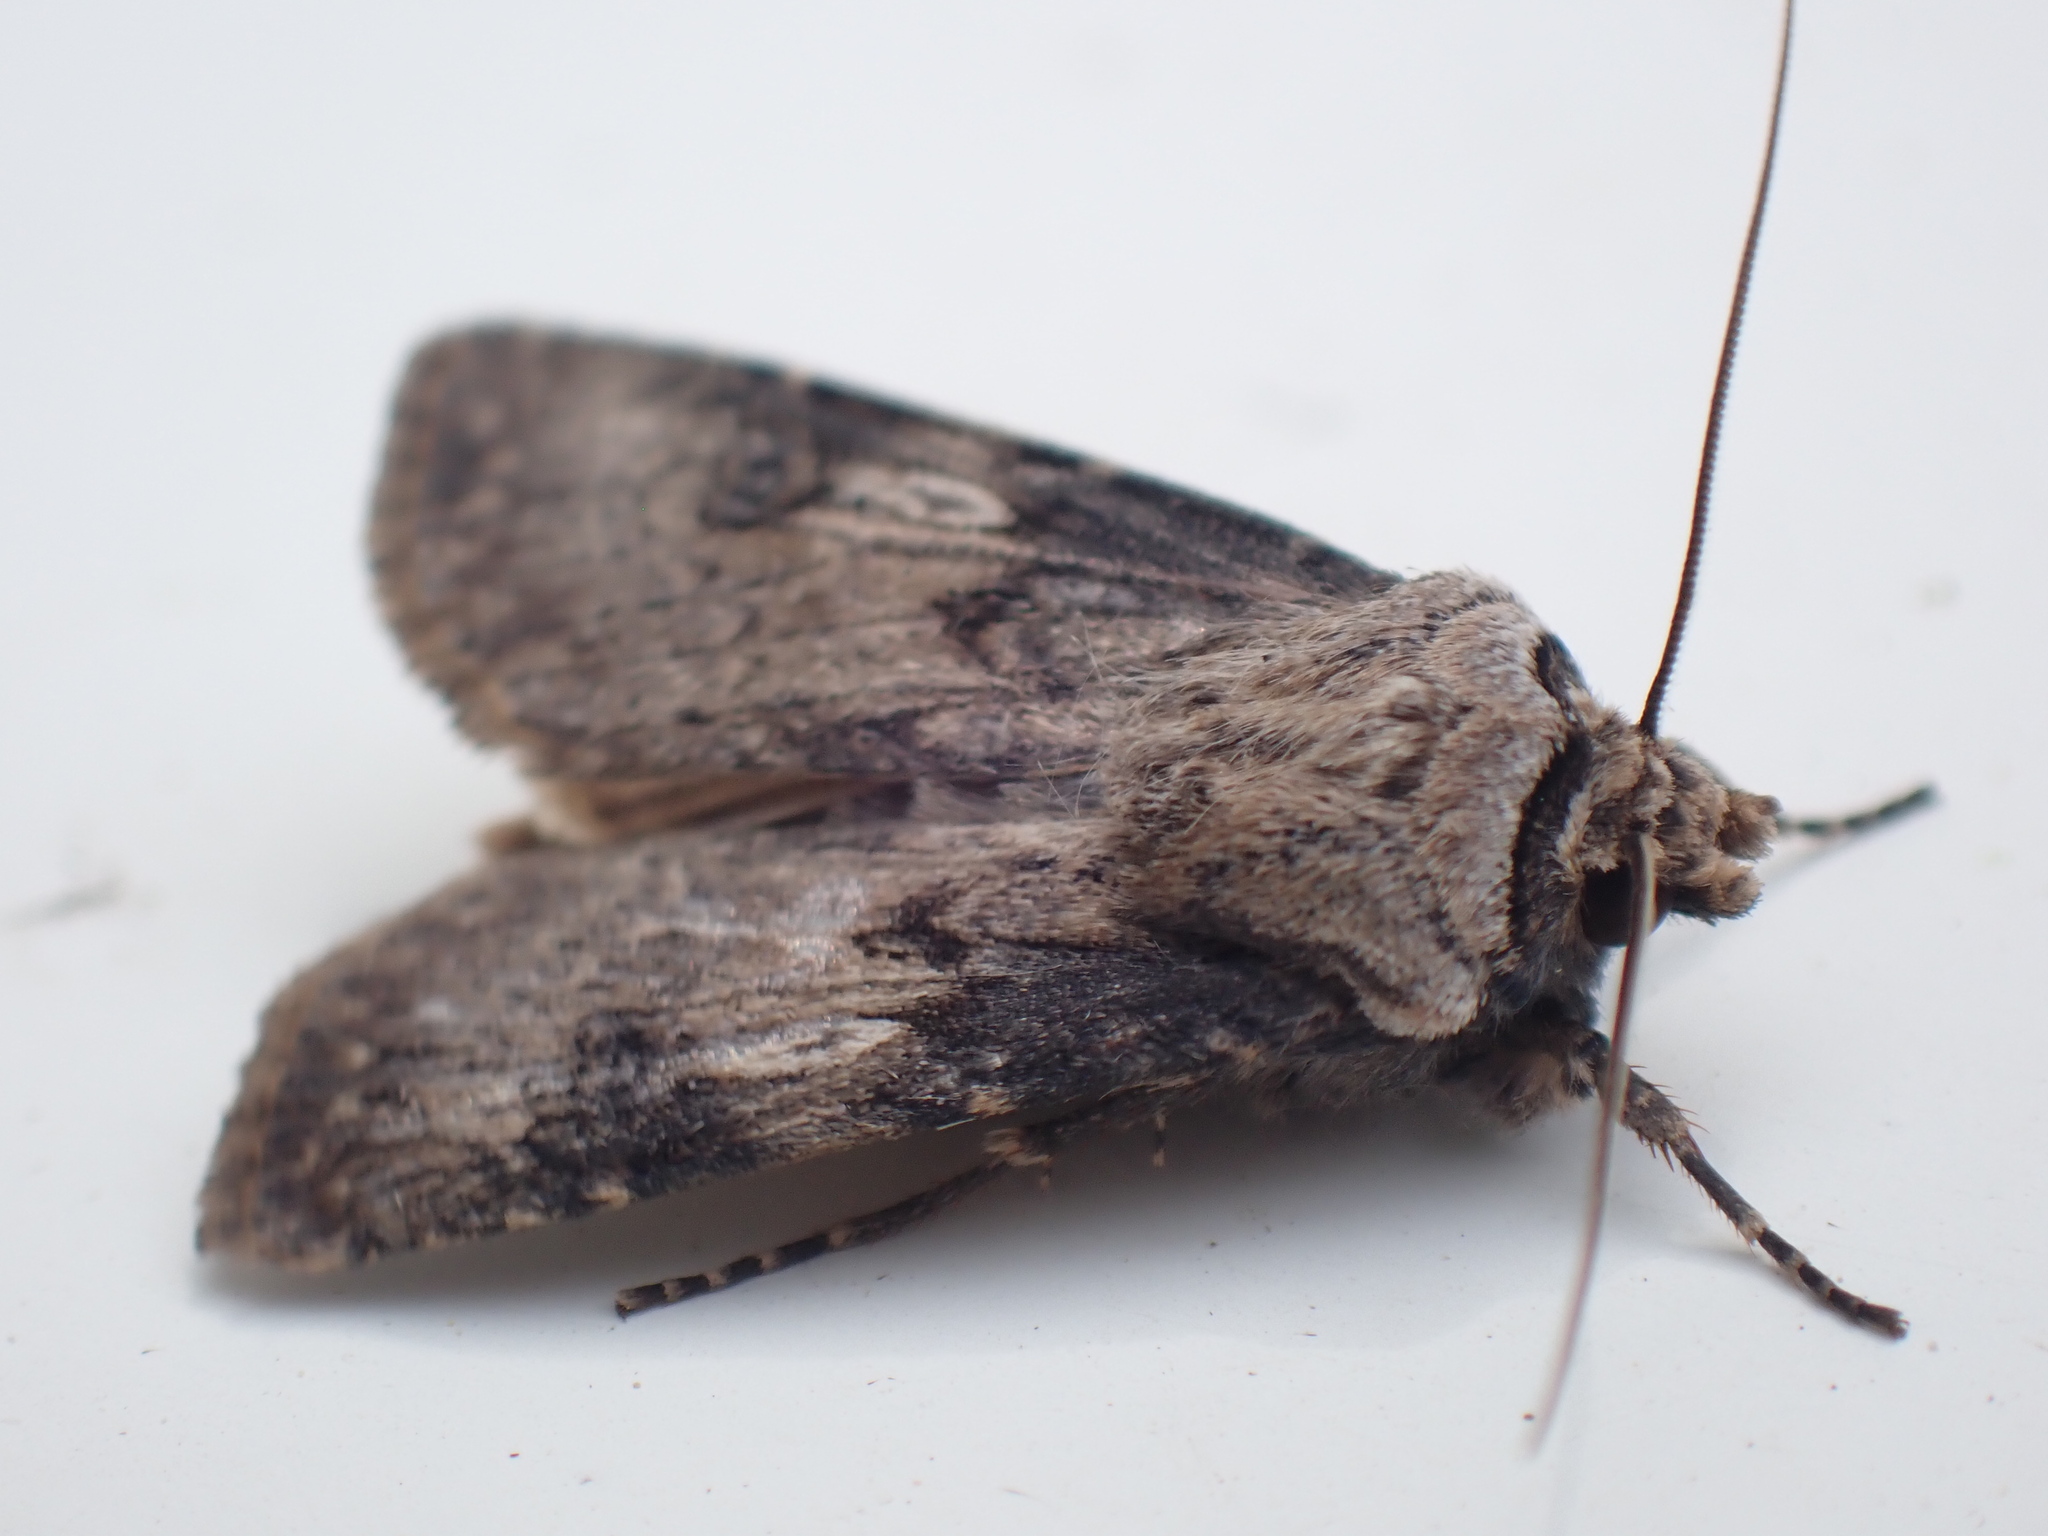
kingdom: Animalia
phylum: Arthropoda
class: Insecta
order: Lepidoptera
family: Noctuidae
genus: Agrotis
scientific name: Agrotis puta
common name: Shuttle-shaped dart
